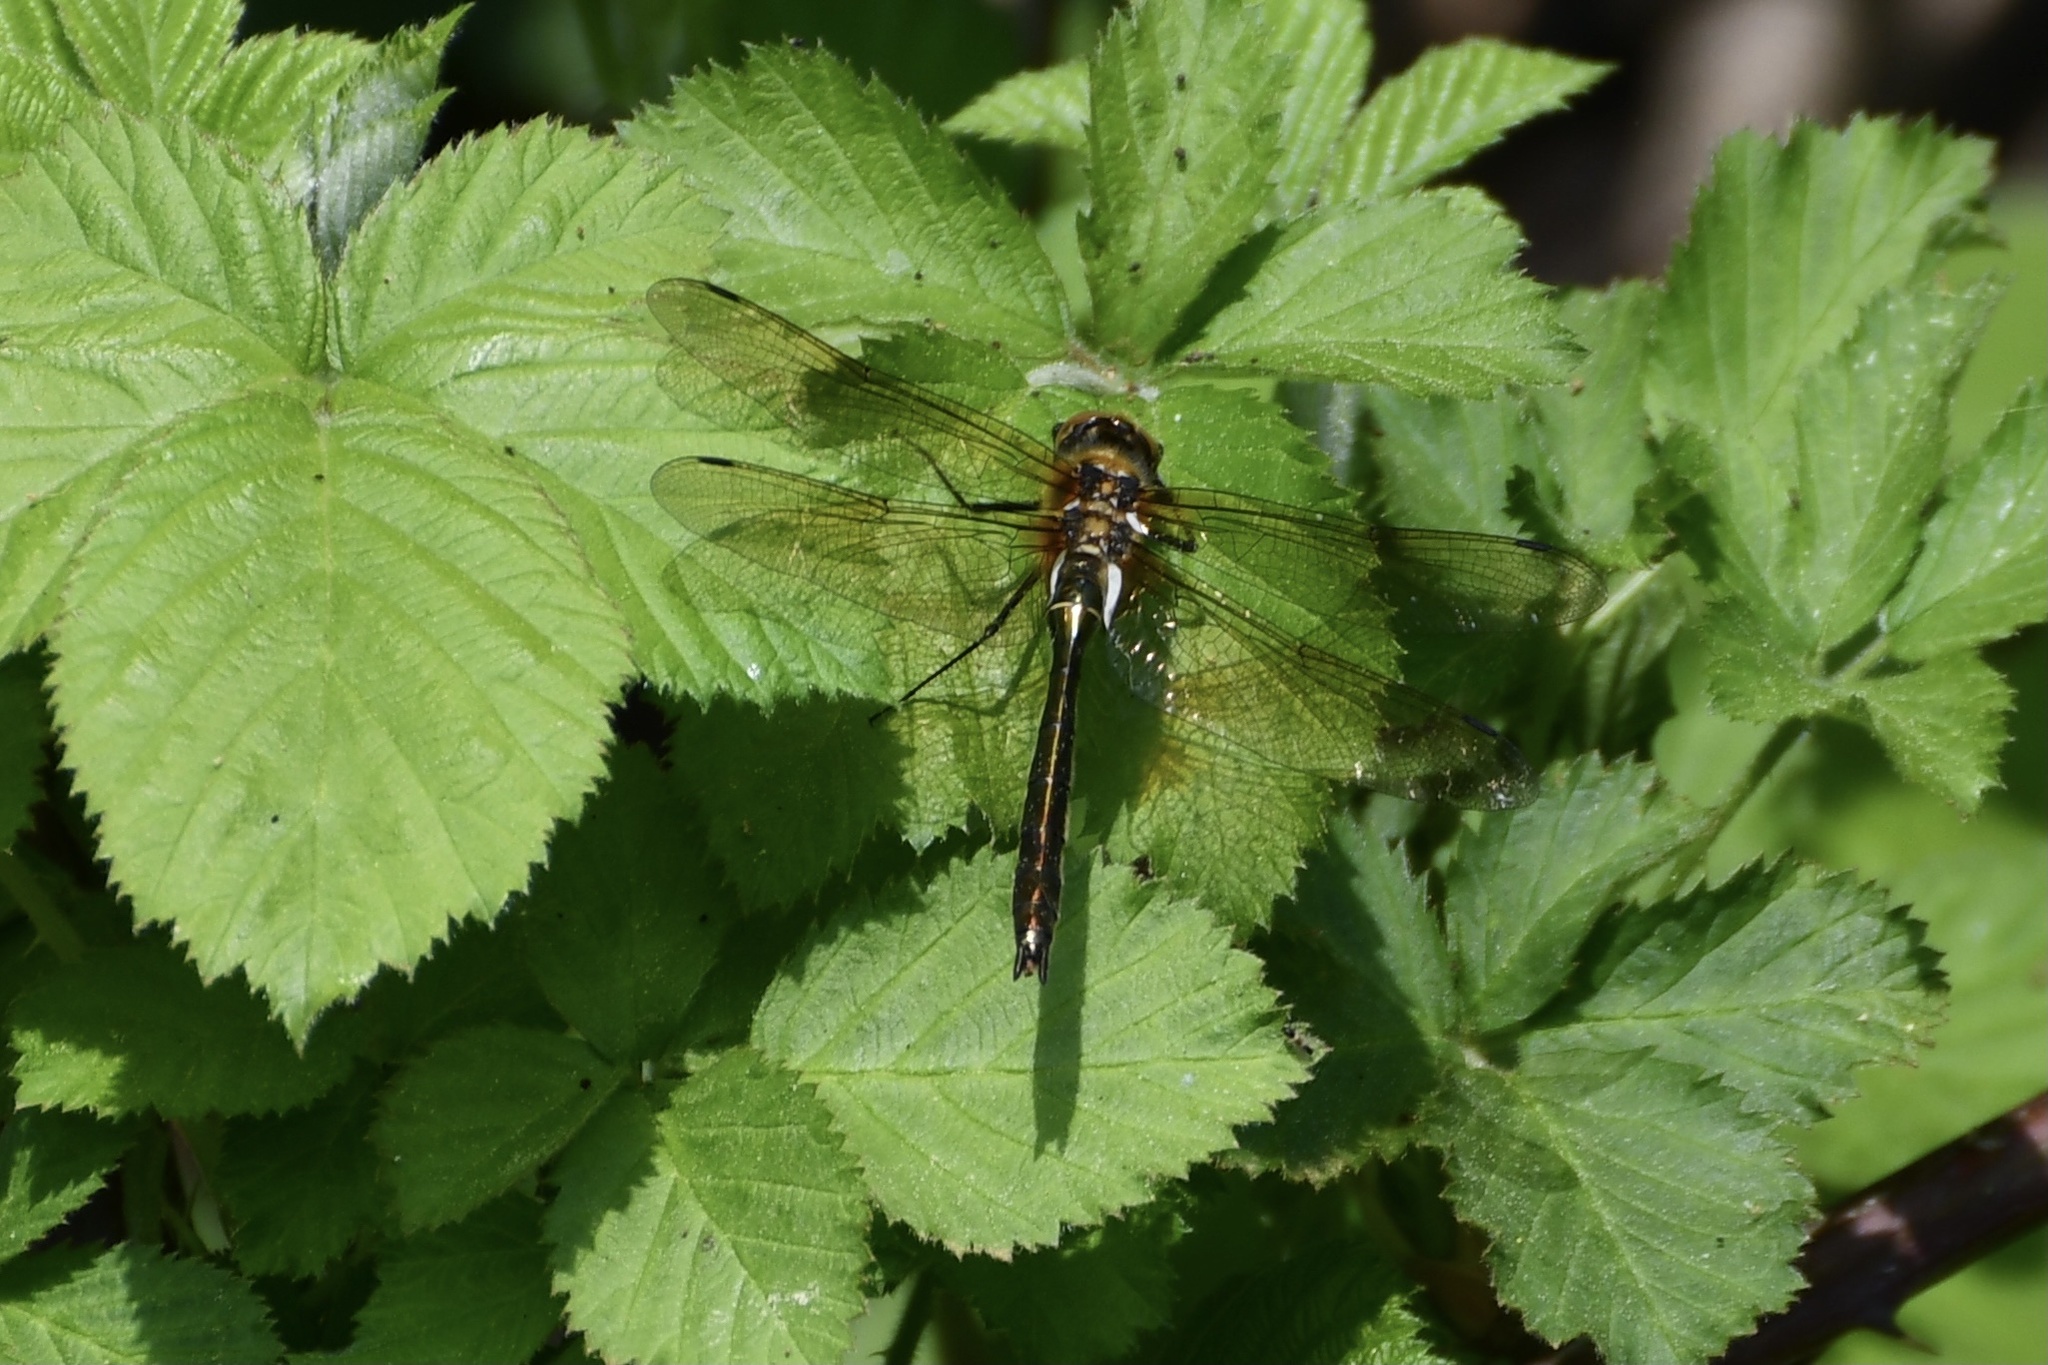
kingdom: Animalia
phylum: Arthropoda
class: Insecta
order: Odonata
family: Corduliidae
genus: Cordulia
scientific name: Cordulia aenea
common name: Downy emerald
